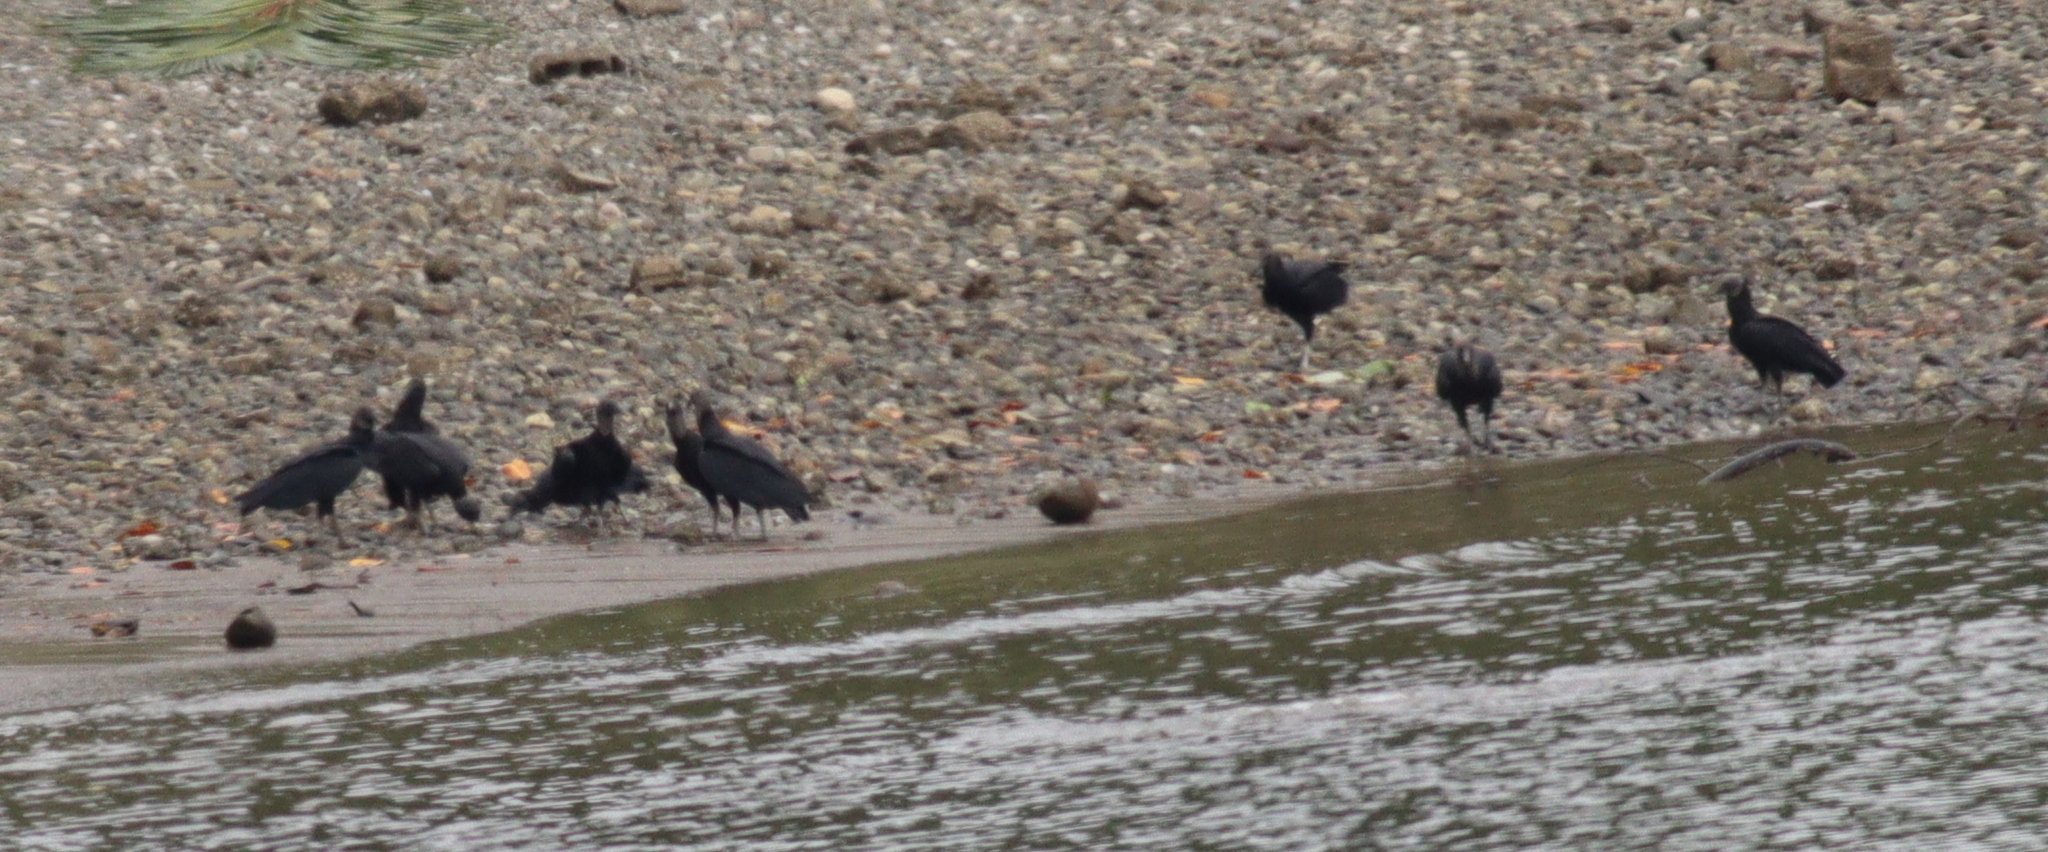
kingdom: Animalia
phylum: Chordata
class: Aves
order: Accipitriformes
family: Cathartidae
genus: Coragyps
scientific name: Coragyps atratus
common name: Black vulture
